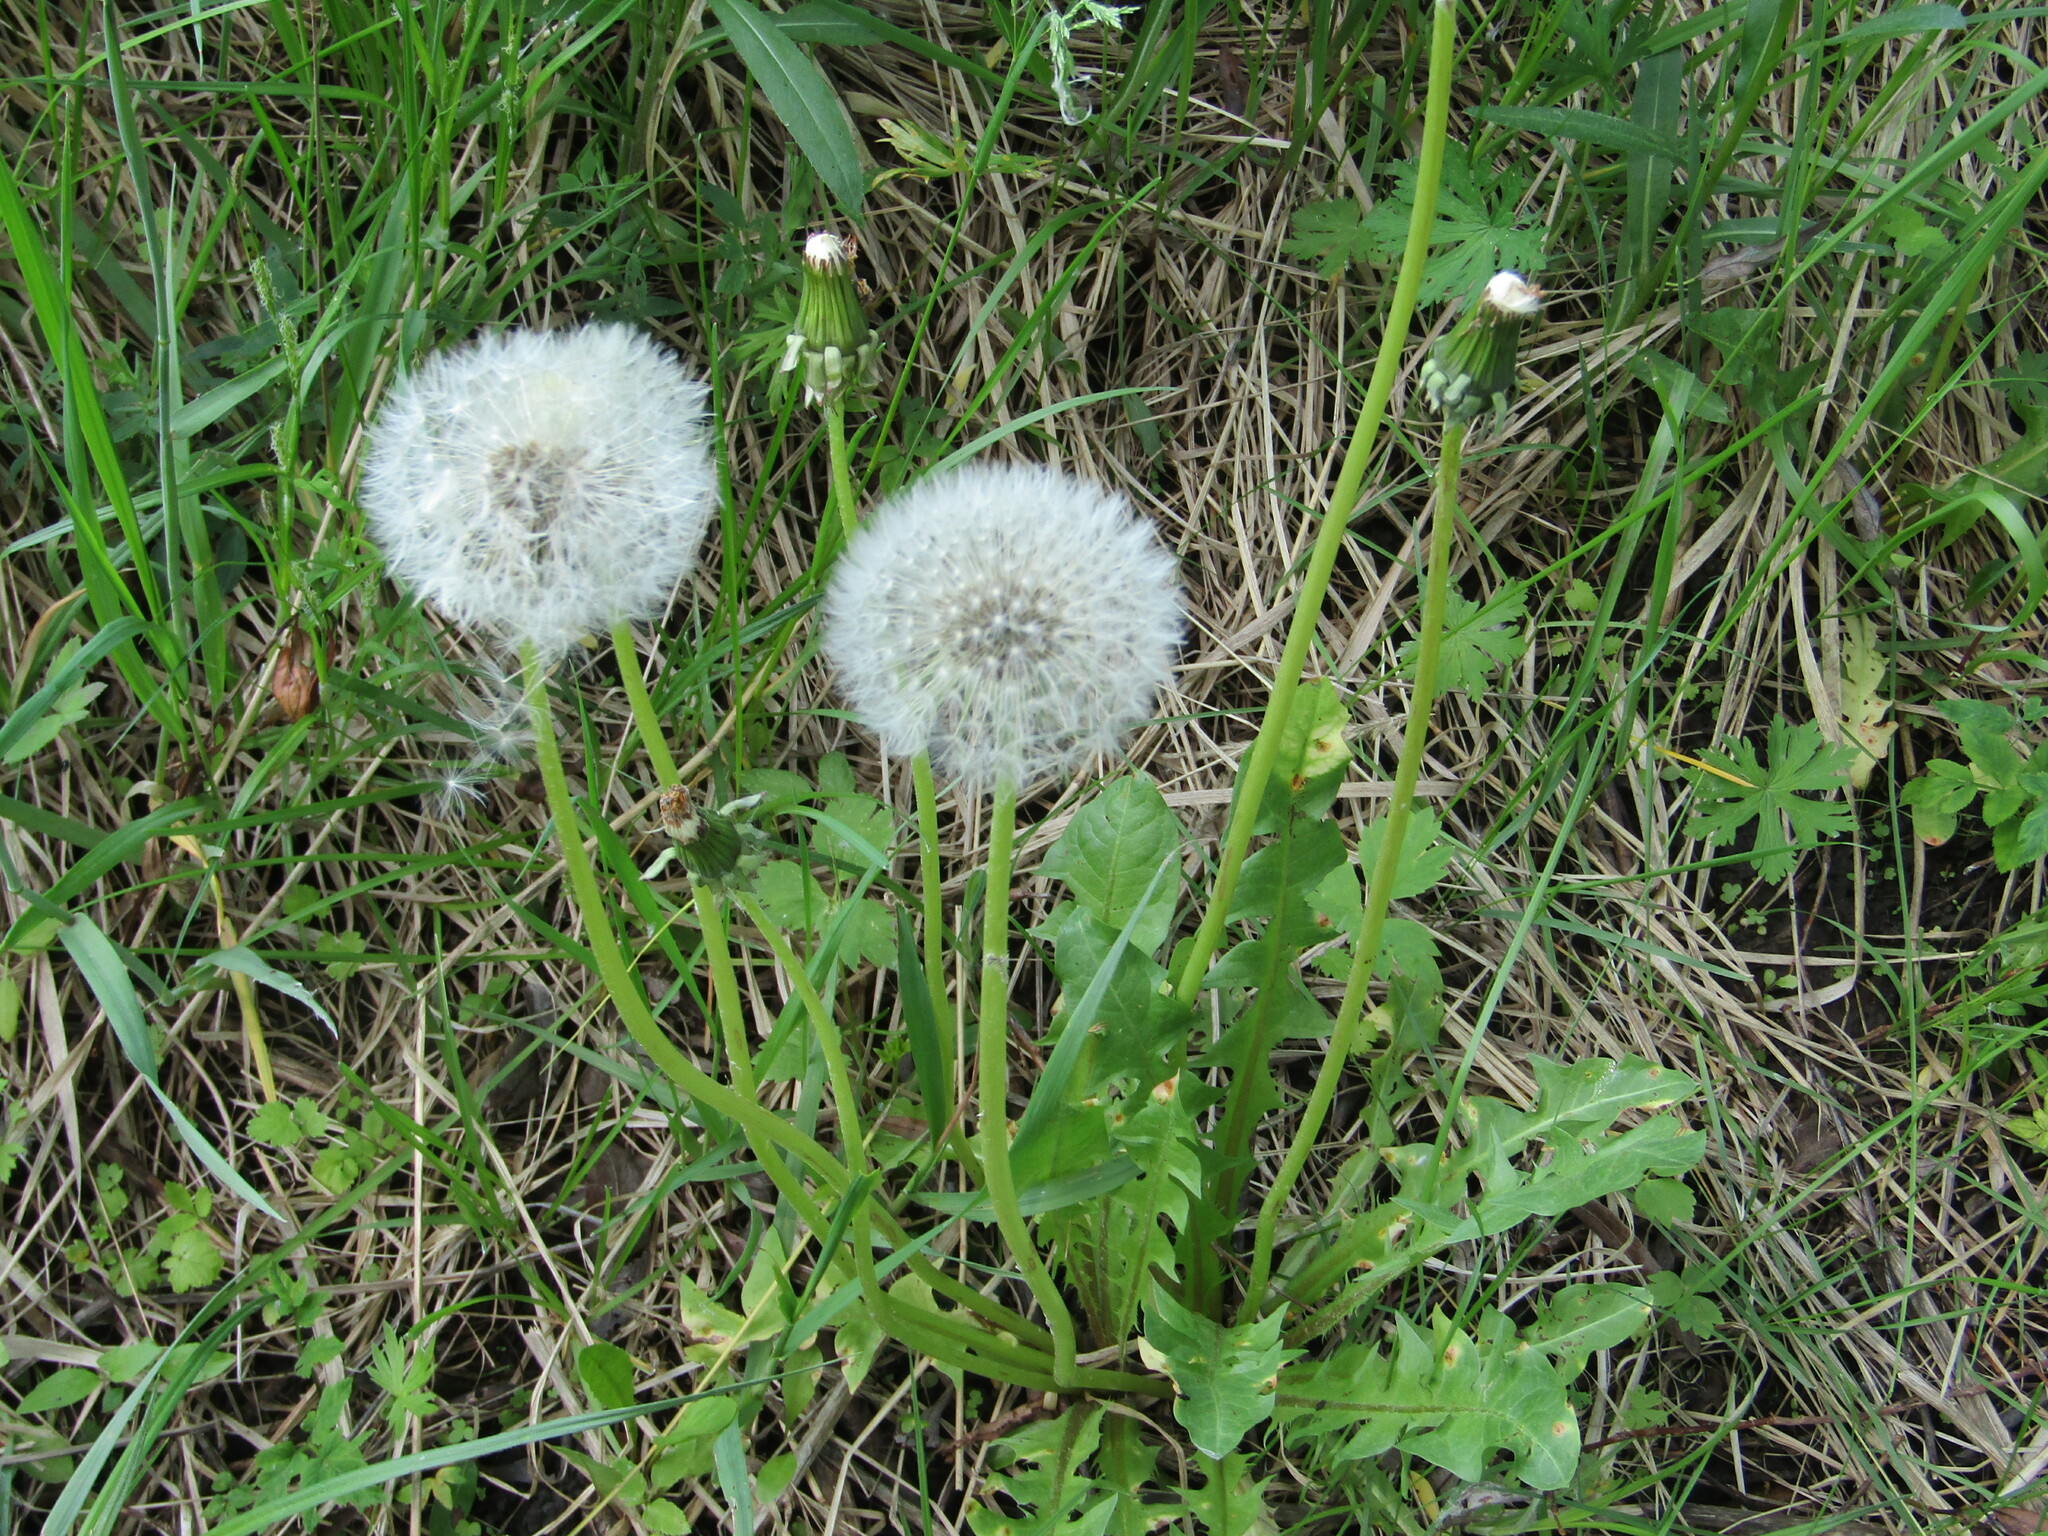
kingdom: Plantae
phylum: Tracheophyta
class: Magnoliopsida
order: Asterales
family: Asteraceae
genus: Taraxacum
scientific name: Taraxacum officinale
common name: Common dandelion
